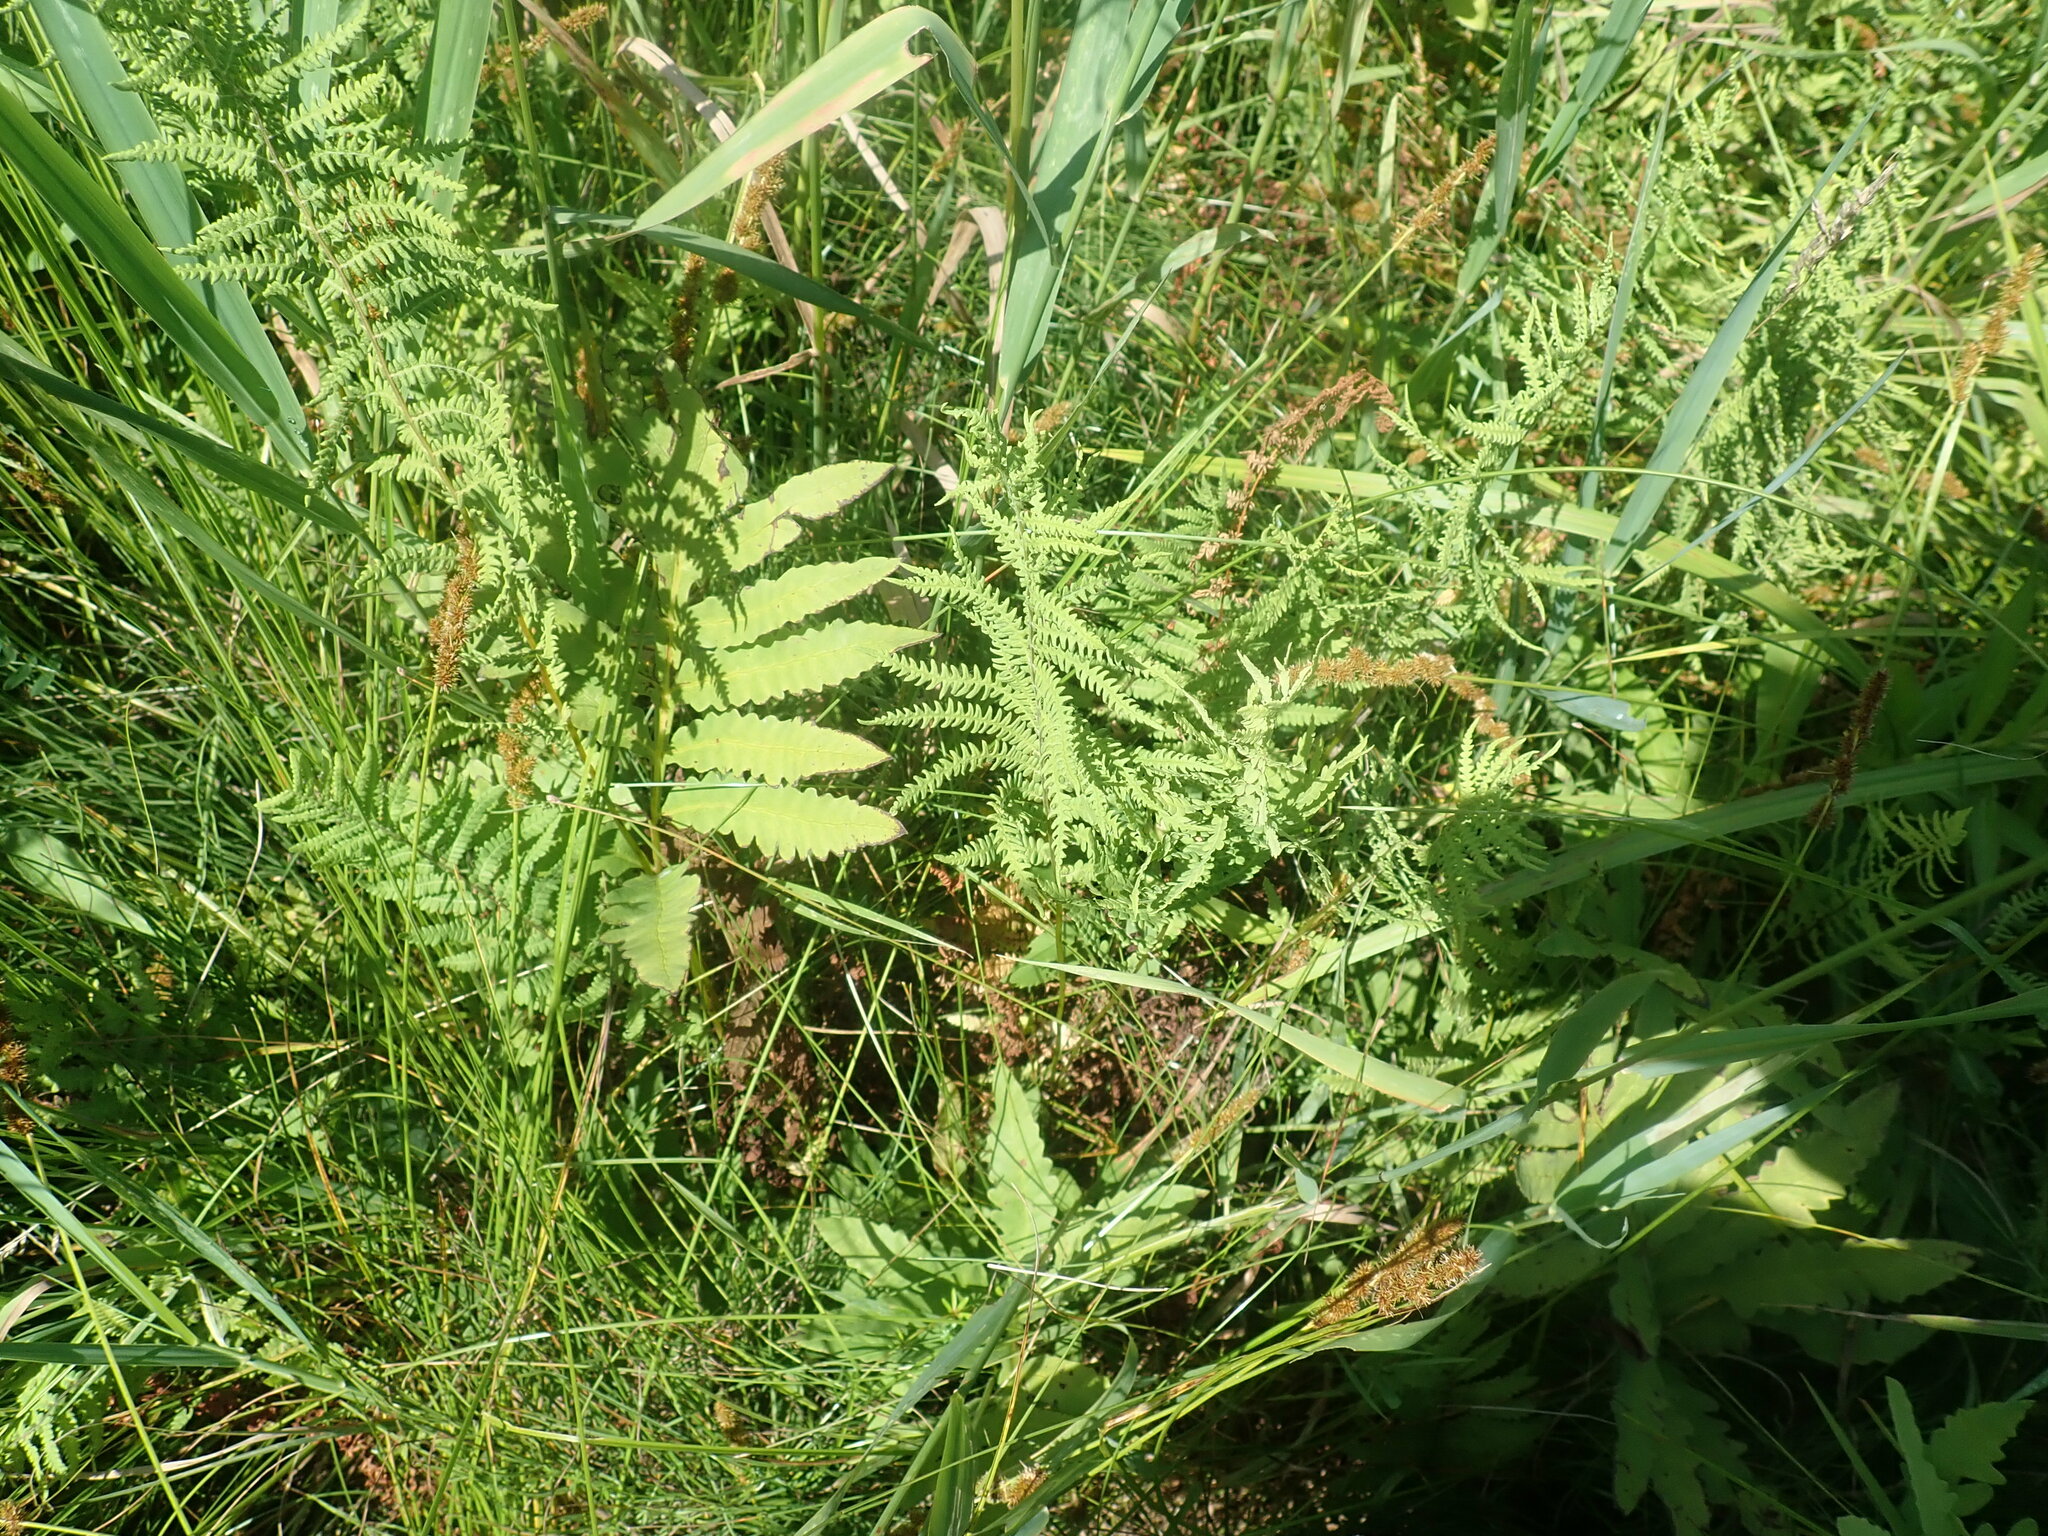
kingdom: Plantae
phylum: Tracheophyta
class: Polypodiopsida
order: Polypodiales
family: Thelypteridaceae
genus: Thelypteris
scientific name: Thelypteris palustris
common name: Marsh fern
